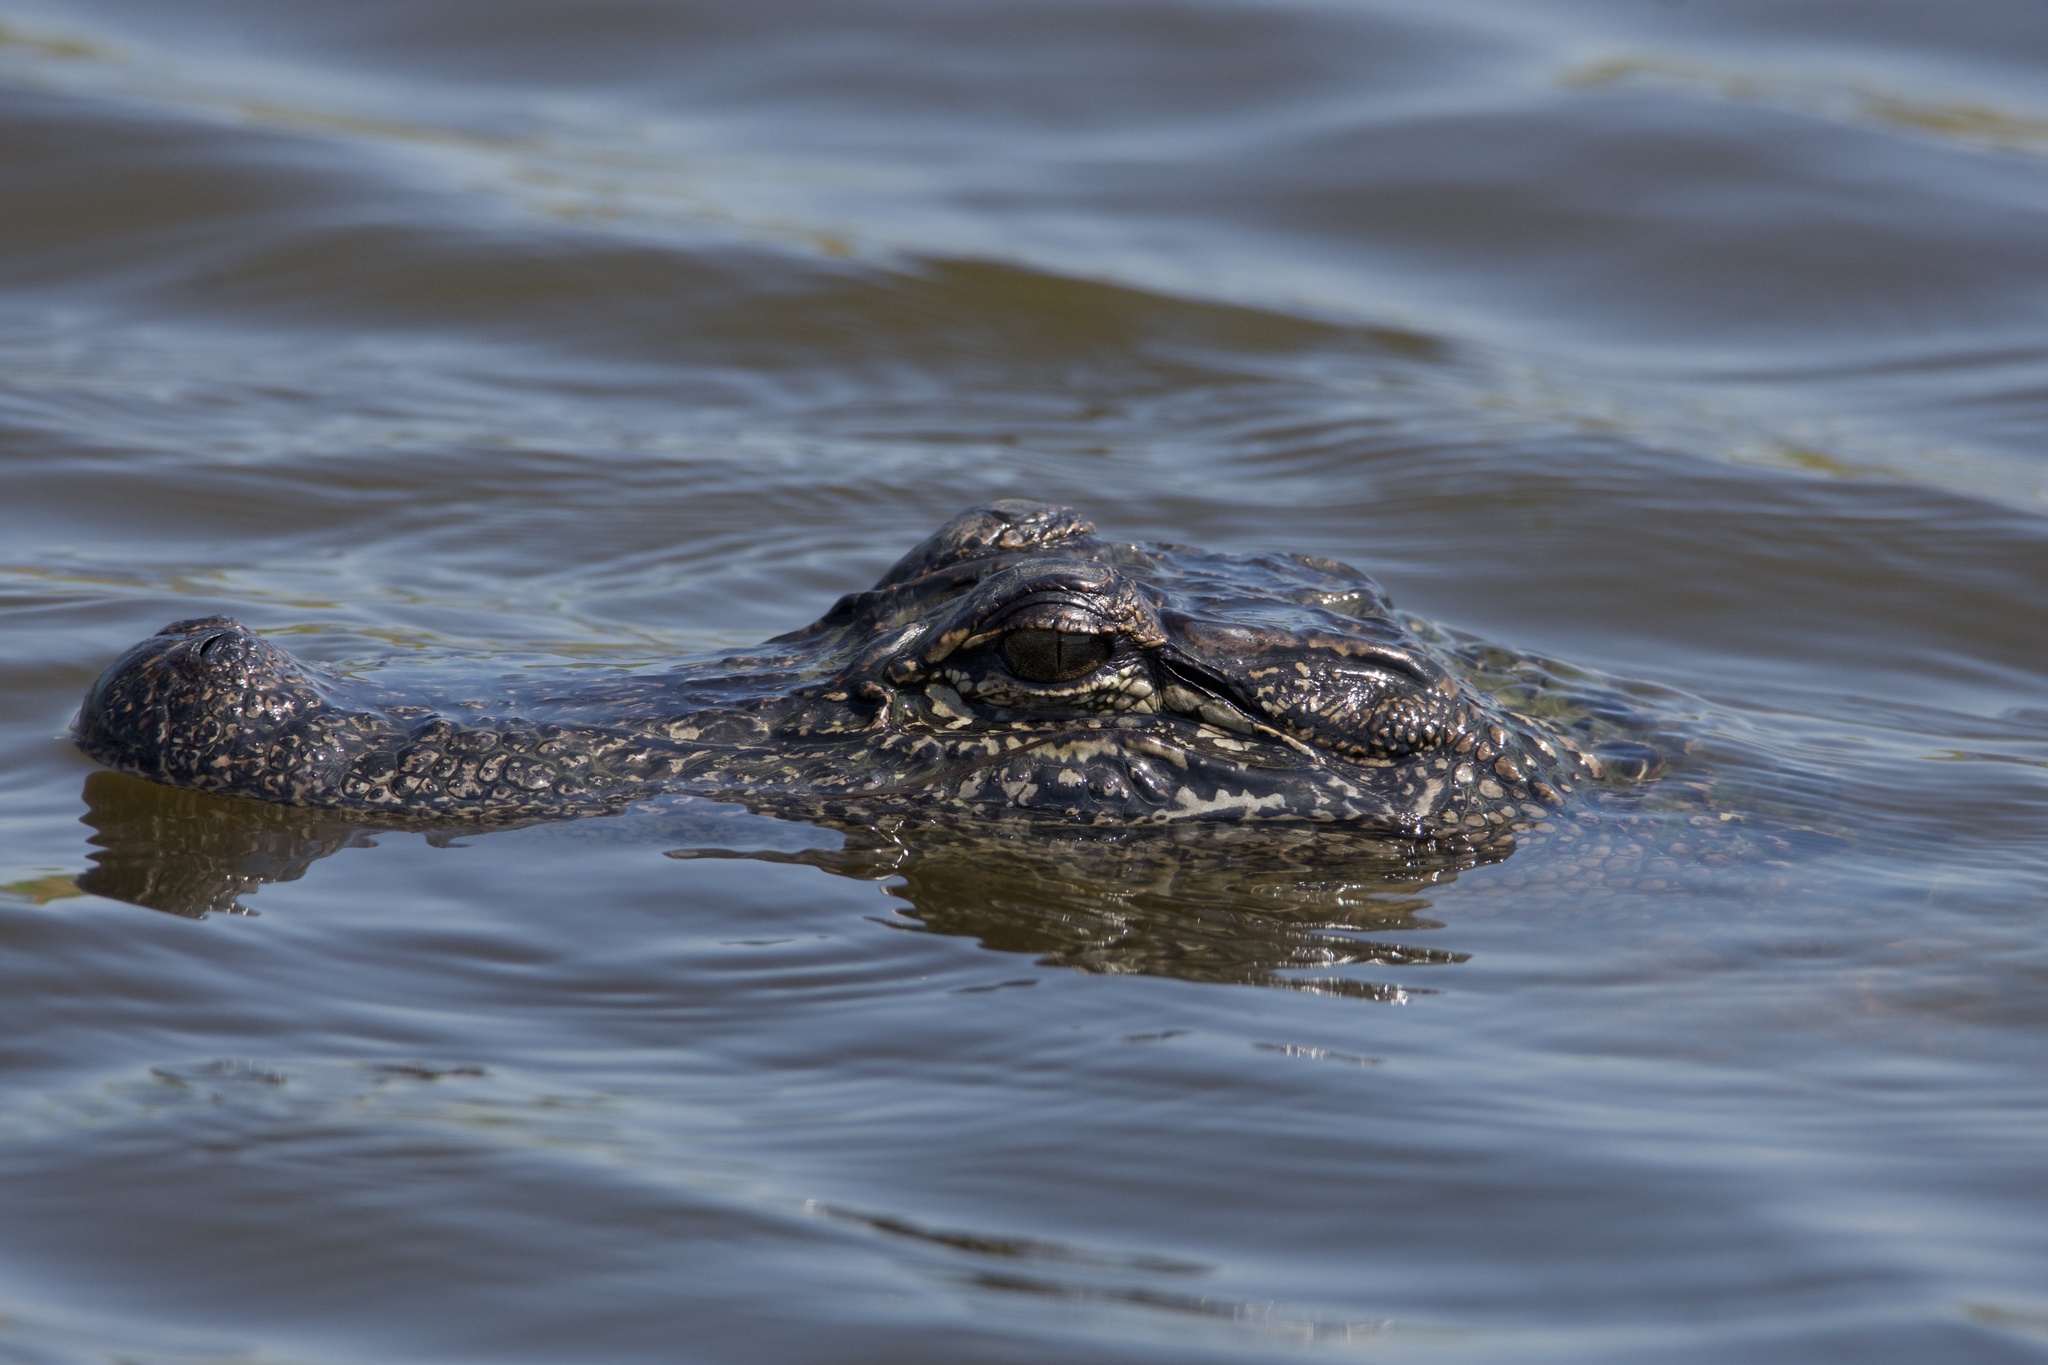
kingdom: Animalia
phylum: Chordata
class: Crocodylia
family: Alligatoridae
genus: Alligator
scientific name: Alligator mississippiensis
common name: American alligator
